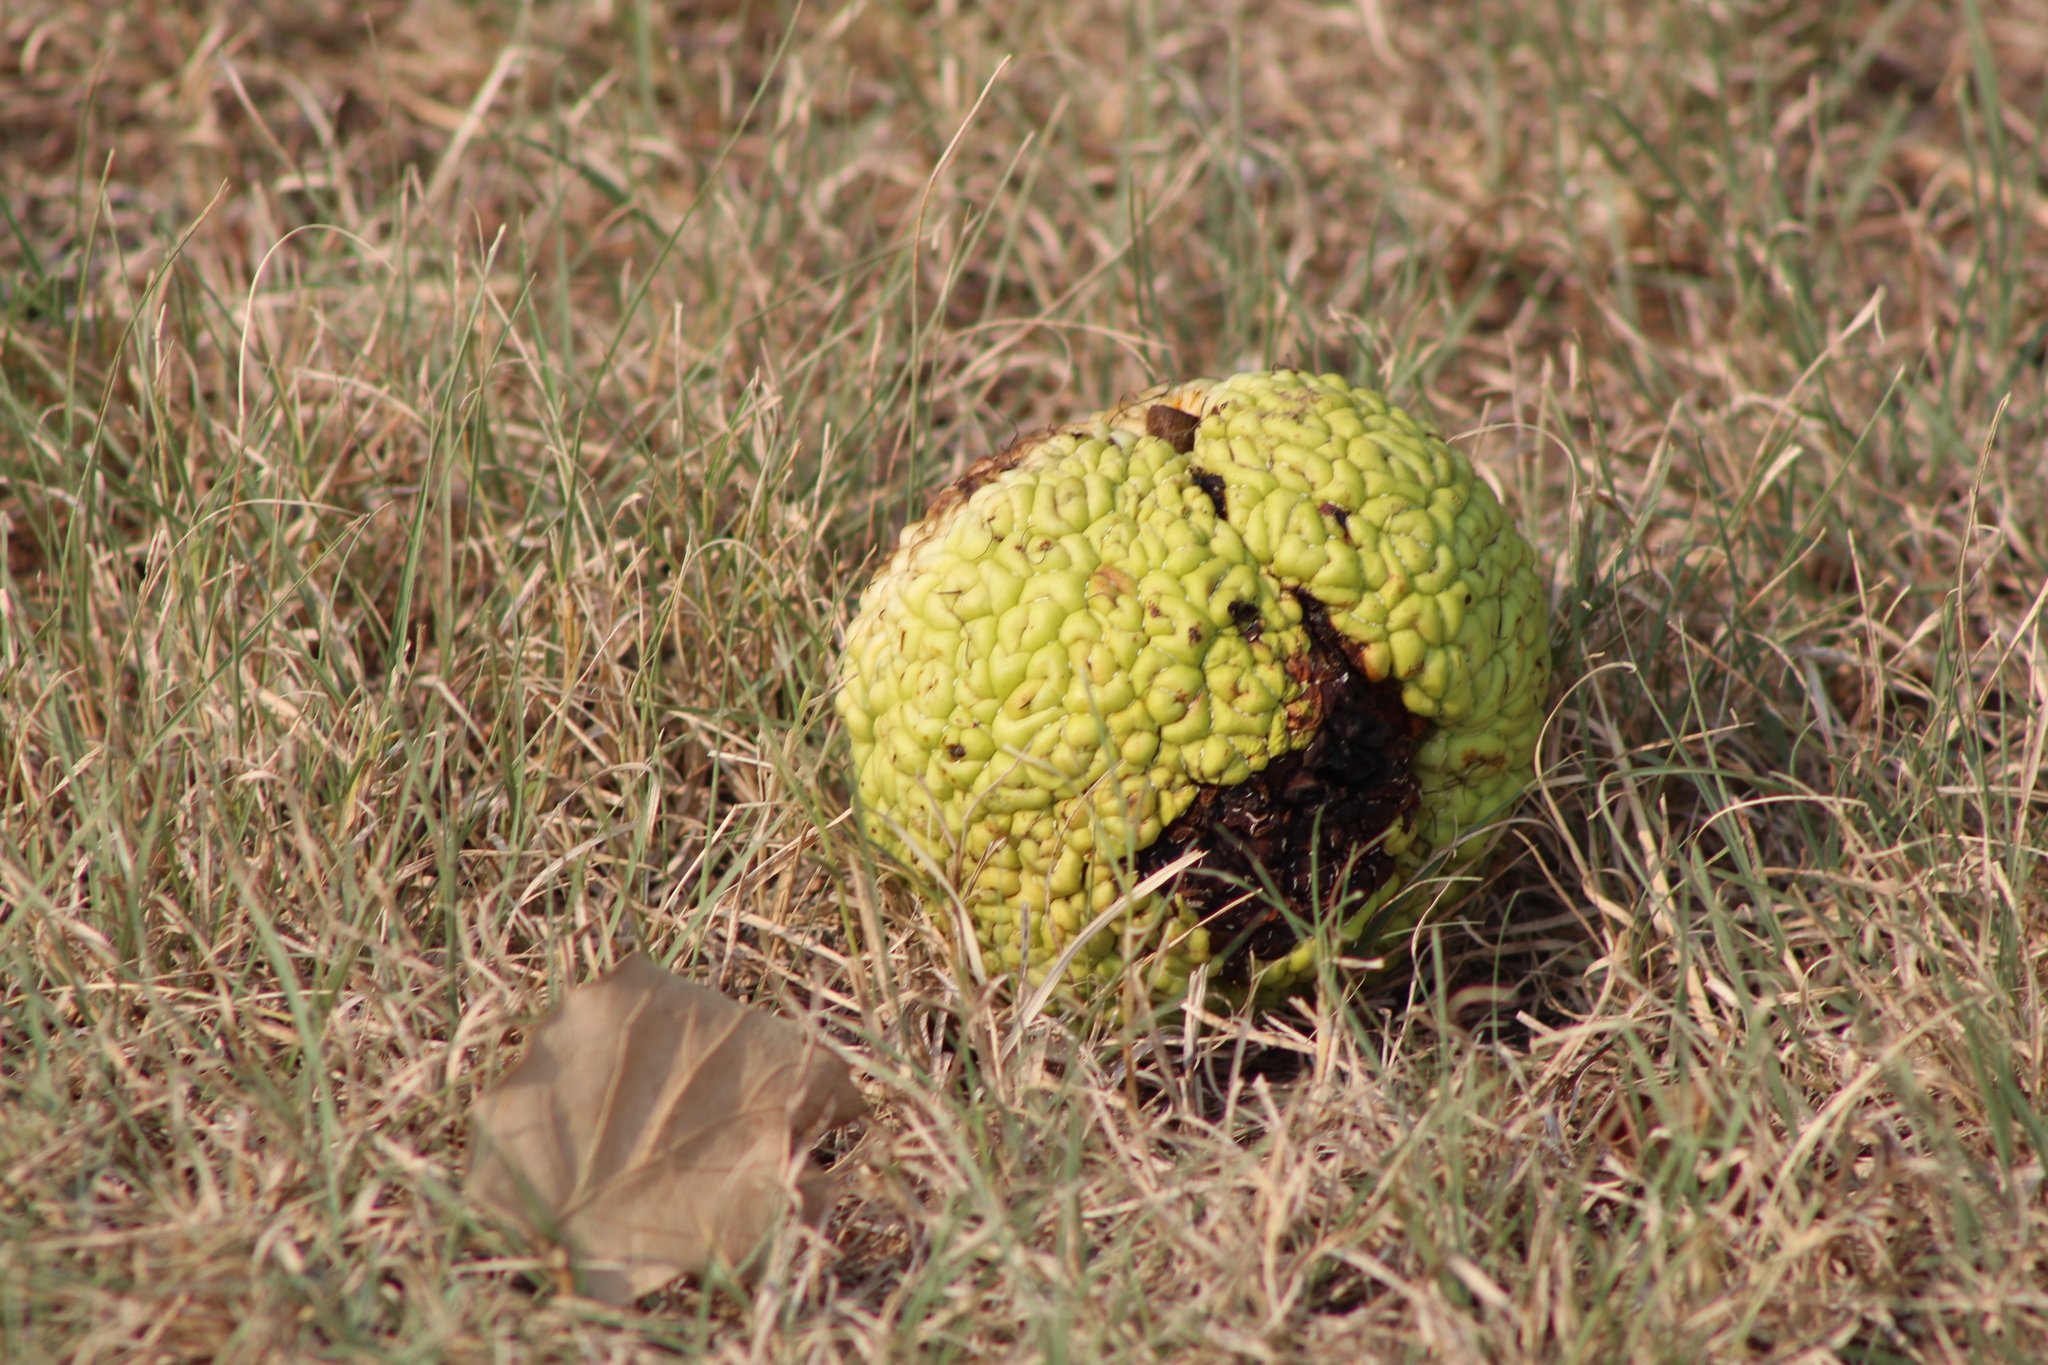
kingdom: Plantae
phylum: Tracheophyta
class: Magnoliopsida
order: Rosales
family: Moraceae
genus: Maclura
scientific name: Maclura pomifera
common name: Osage-orange
